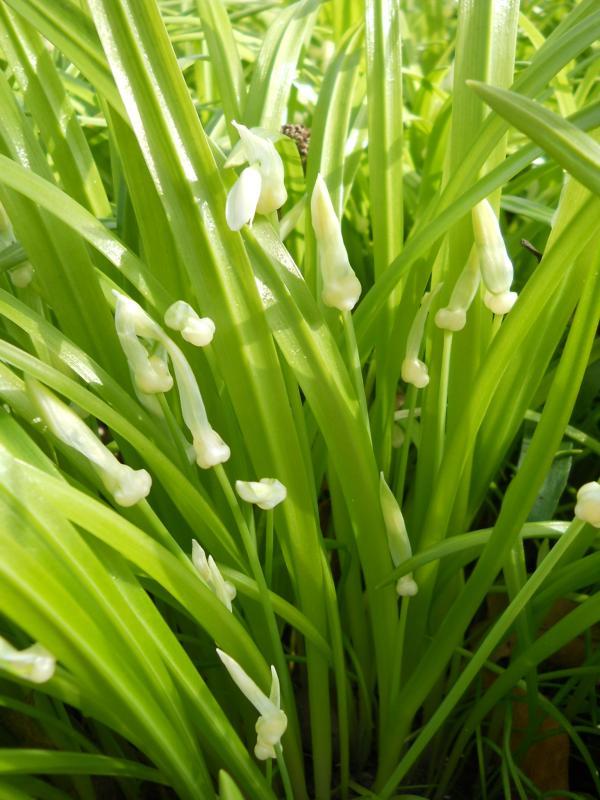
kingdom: Plantae
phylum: Tracheophyta
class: Liliopsida
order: Asparagales
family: Amaryllidaceae
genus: Allium
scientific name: Allium paradoxum
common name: Few-flowered garlic
